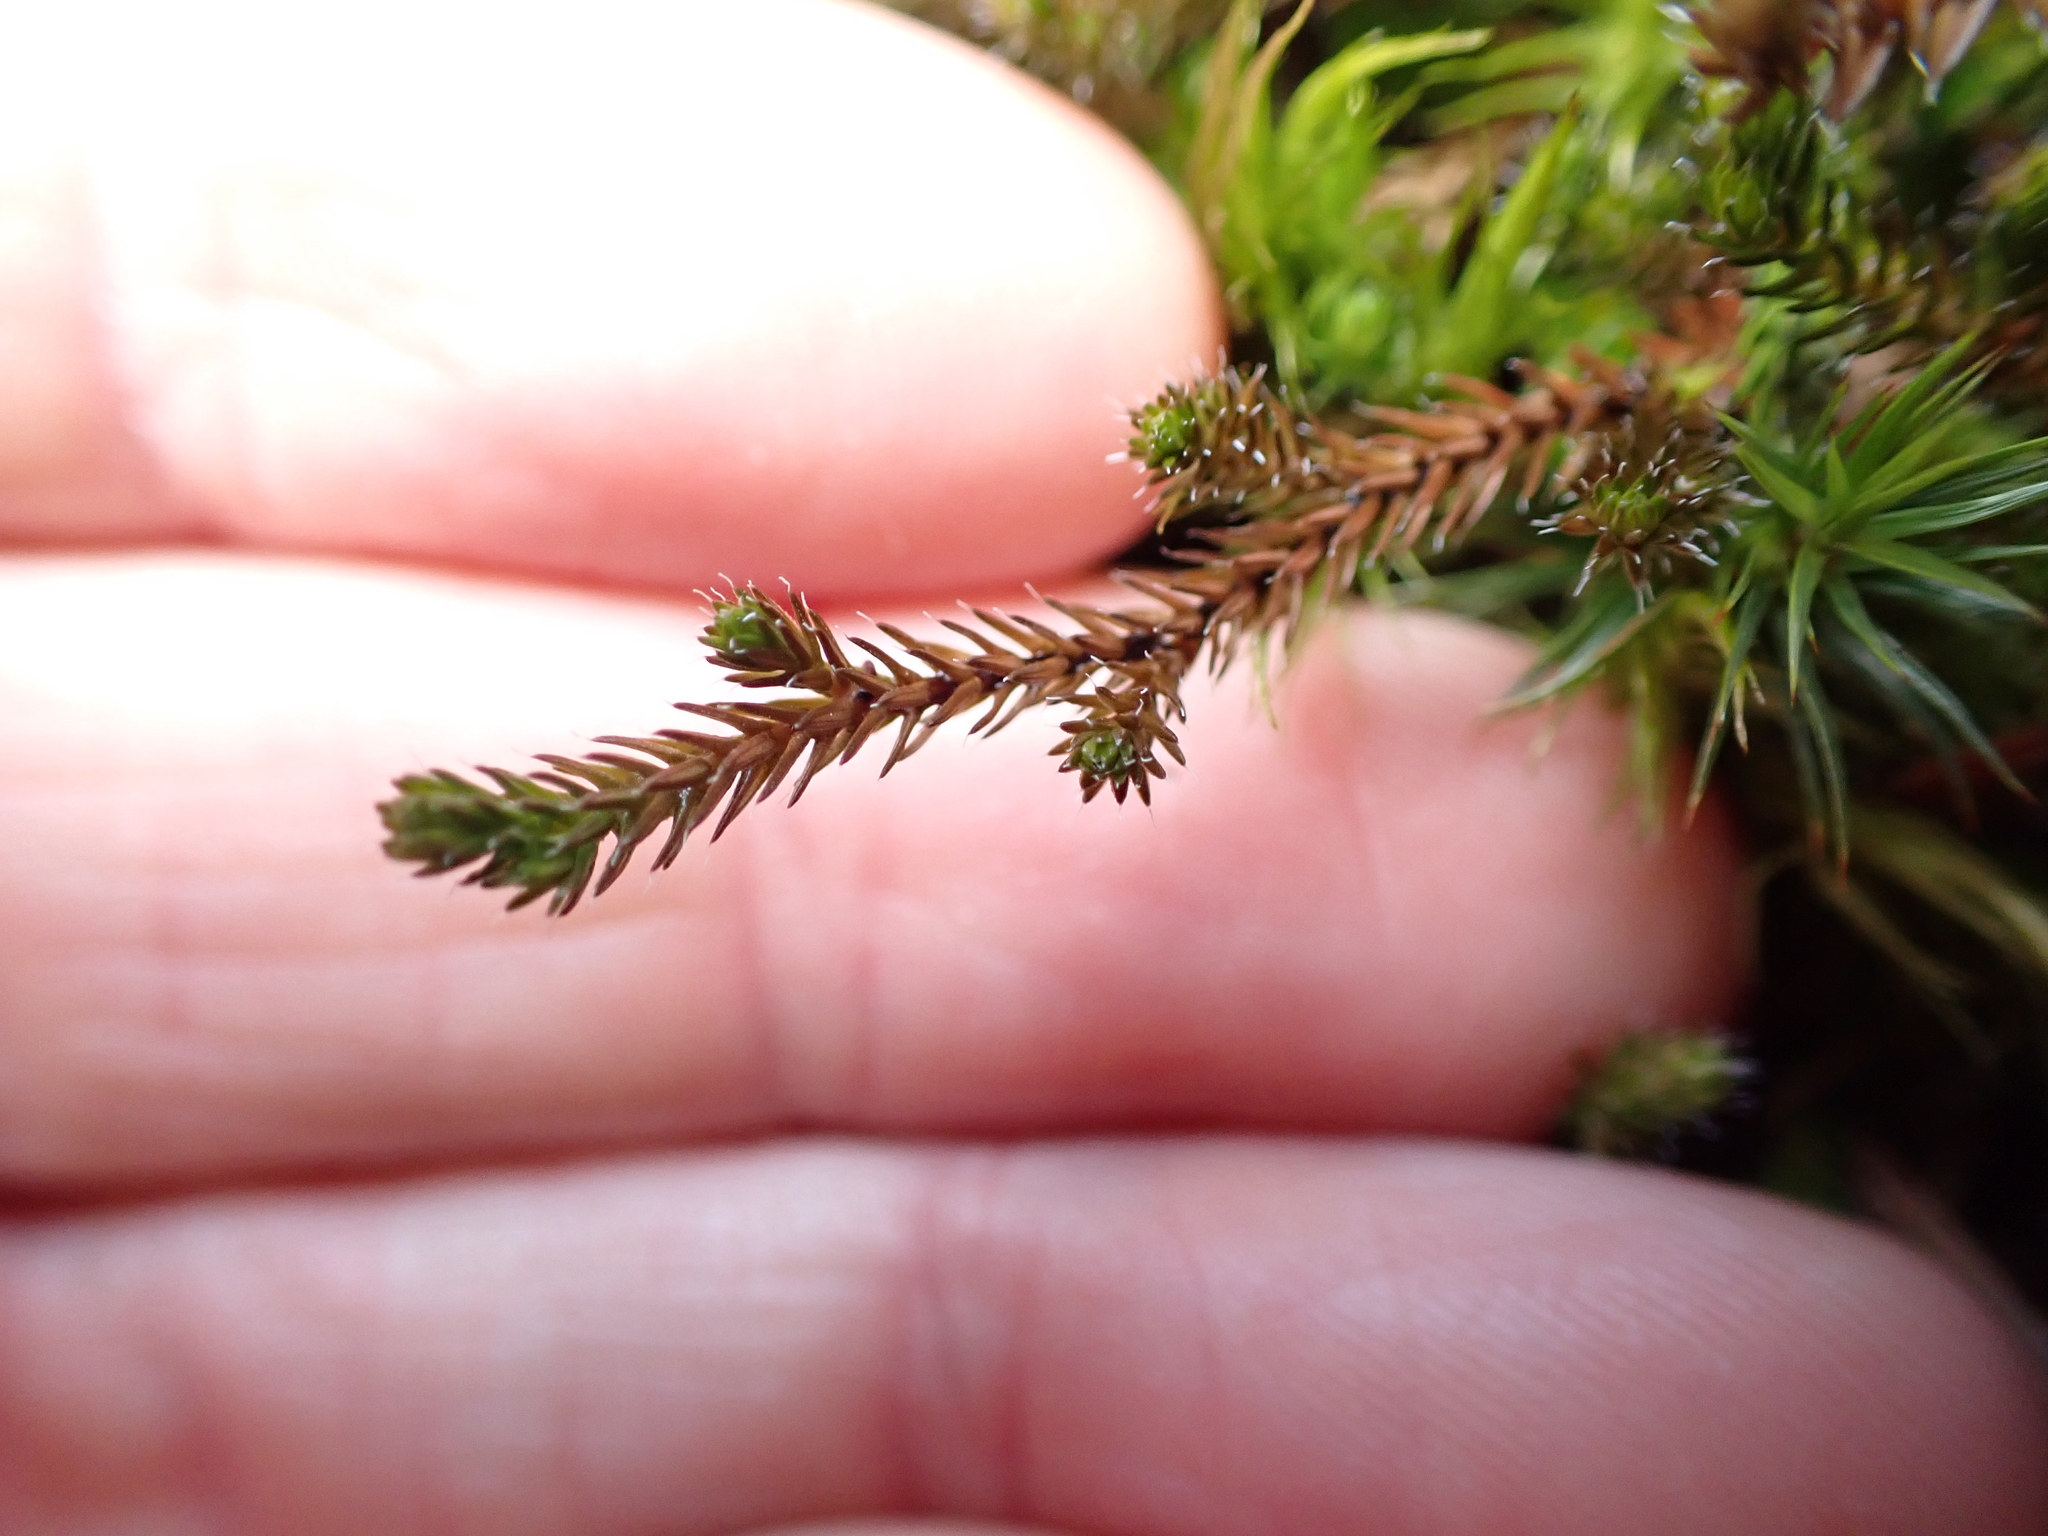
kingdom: Plantae
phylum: Tracheophyta
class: Lycopodiopsida
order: Selaginellales
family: Selaginellaceae
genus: Selaginella
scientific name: Selaginella wallacei
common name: Wallace's selaginella
